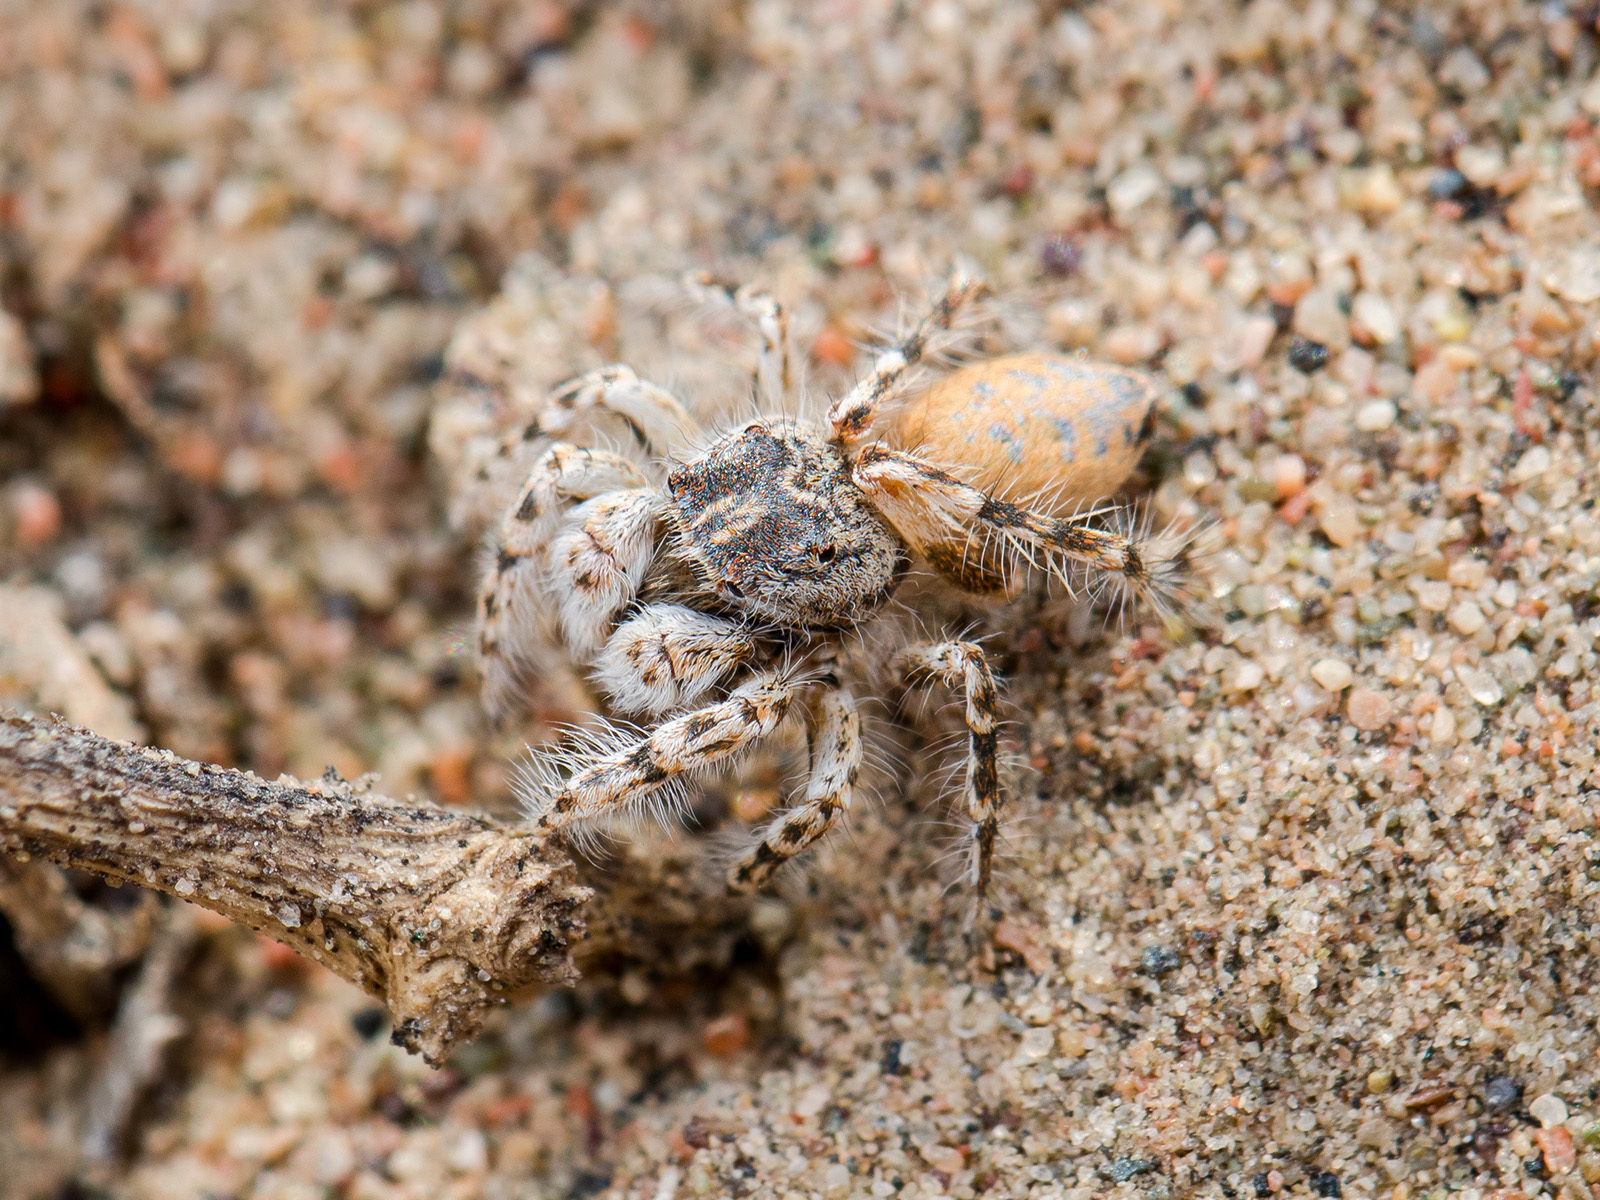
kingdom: Animalia
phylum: Arthropoda
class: Arachnida
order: Araneae
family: Salticidae
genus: Yllenus
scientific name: Yllenus turkestanicus
